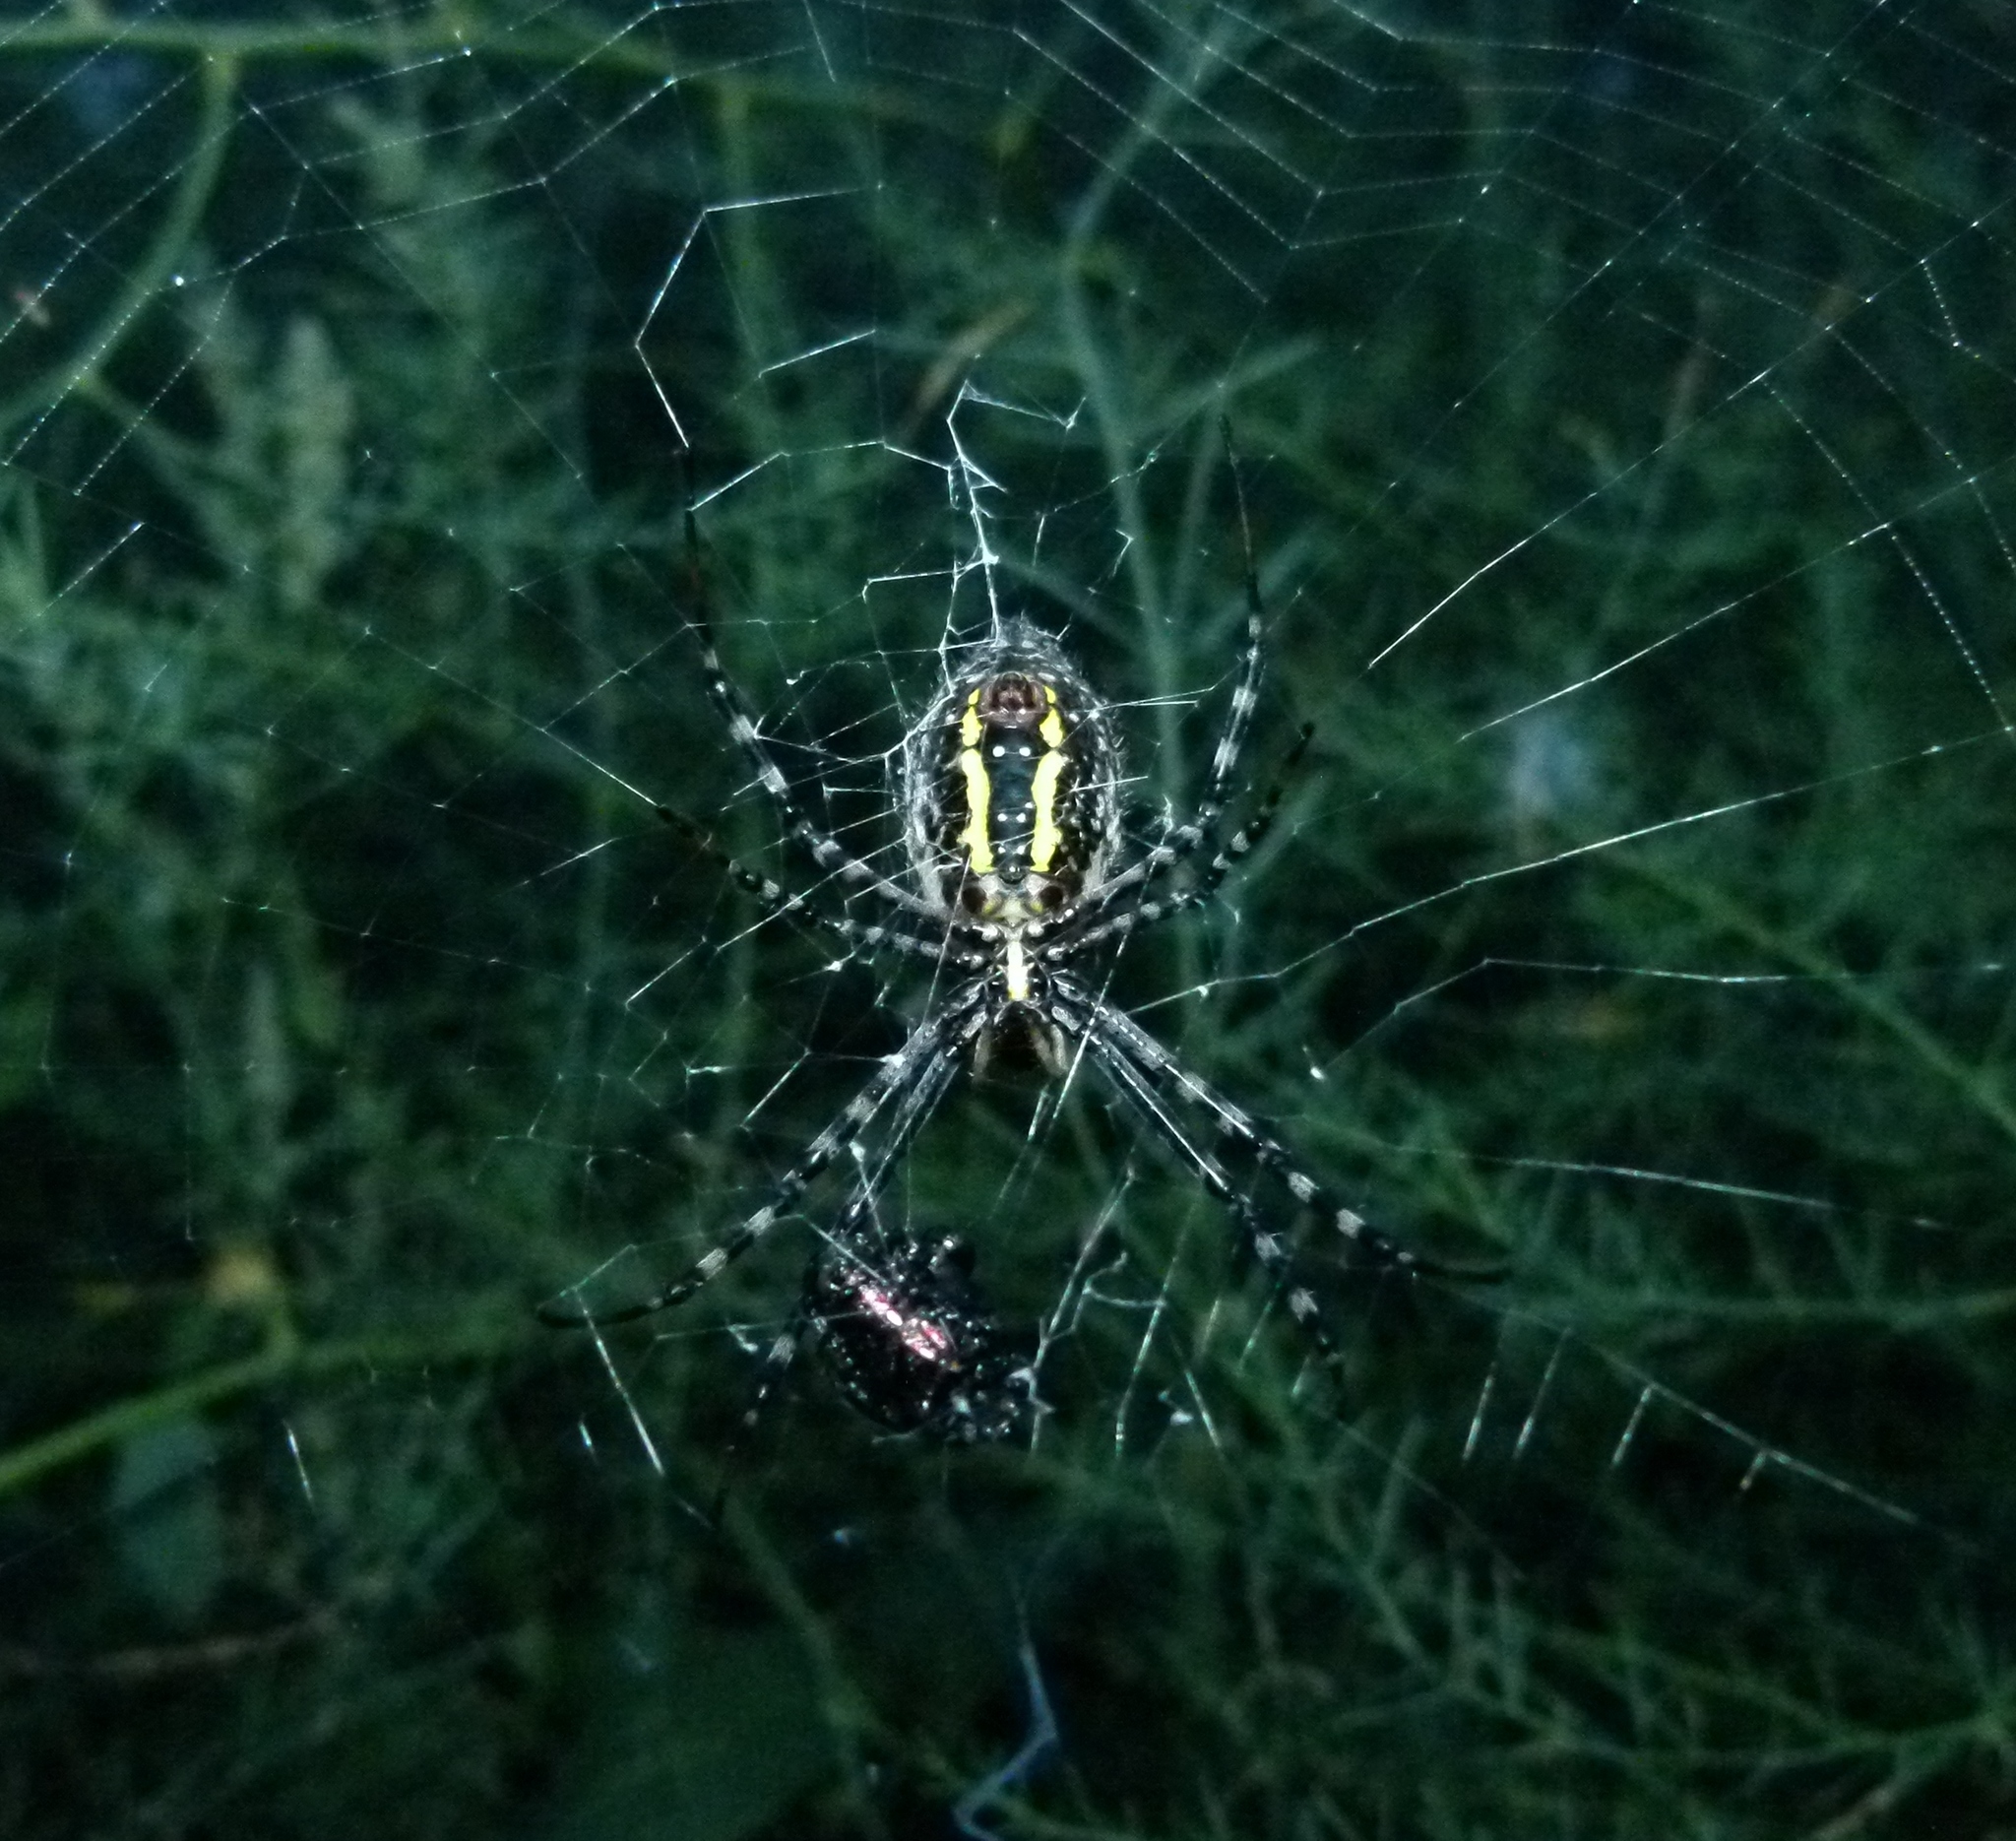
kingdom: Animalia
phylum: Arthropoda
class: Arachnida
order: Araneae
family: Araneidae
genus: Argiope
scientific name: Argiope trifasciata
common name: Banded garden spider
